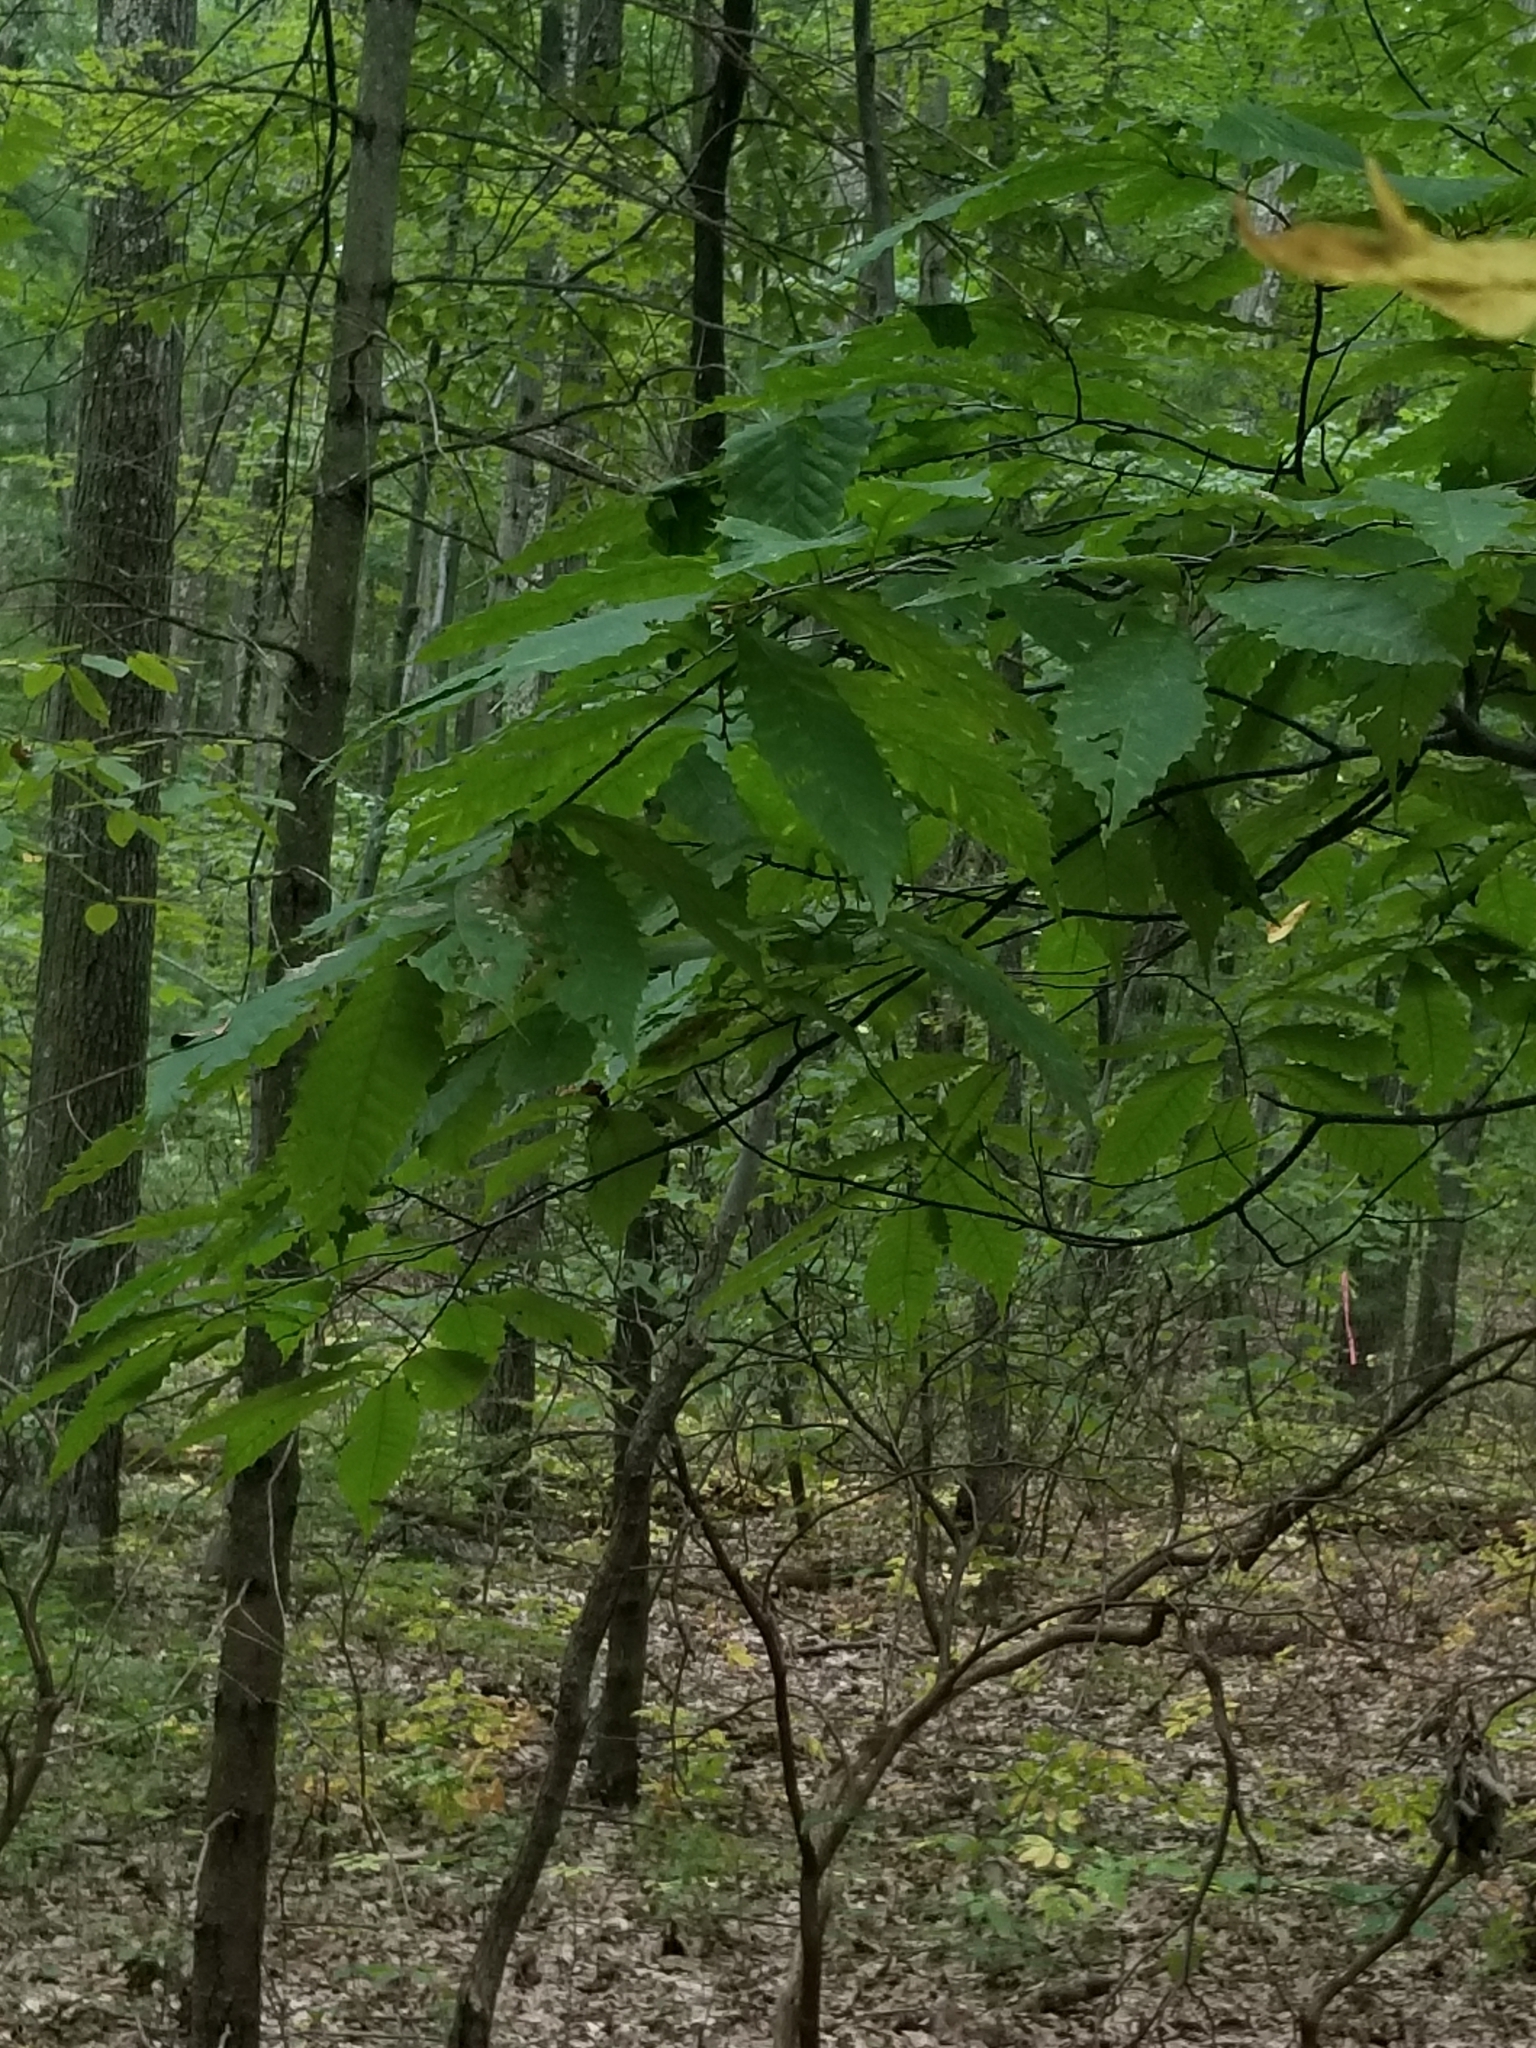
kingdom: Plantae
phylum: Tracheophyta
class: Magnoliopsida
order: Fagales
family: Fagaceae
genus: Castanea
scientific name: Castanea dentata
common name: American chestnut
